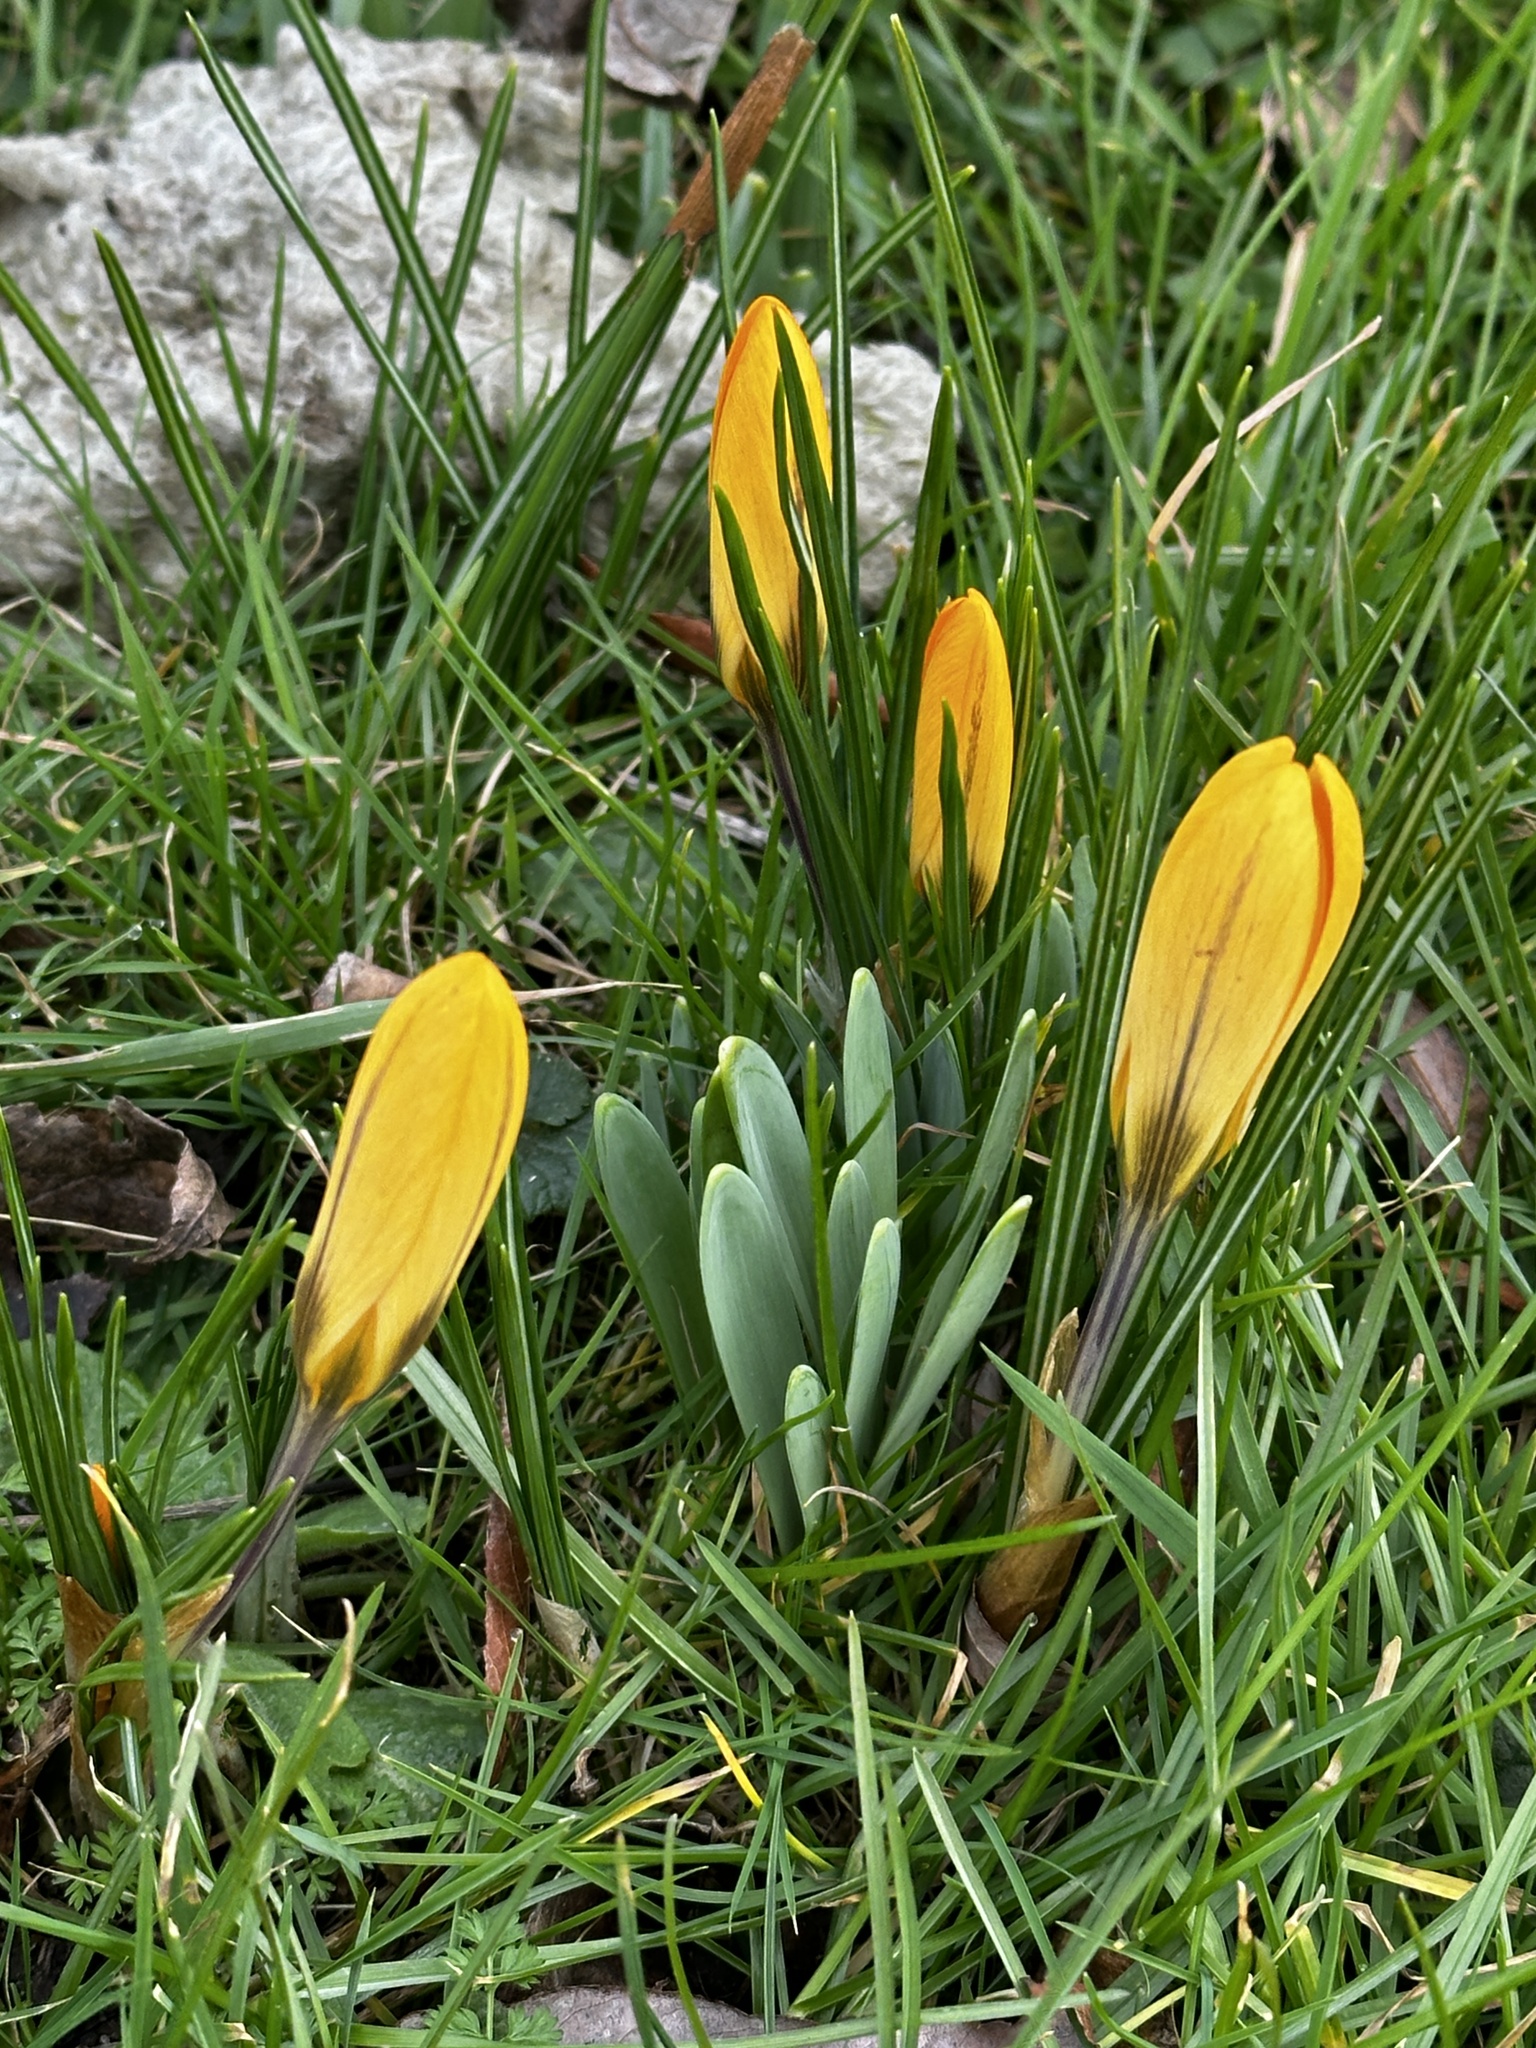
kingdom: Plantae
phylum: Tracheophyta
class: Liliopsida
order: Asparagales
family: Iridaceae
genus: Crocus
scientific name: Crocus chrysanthus
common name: Golden crocus
